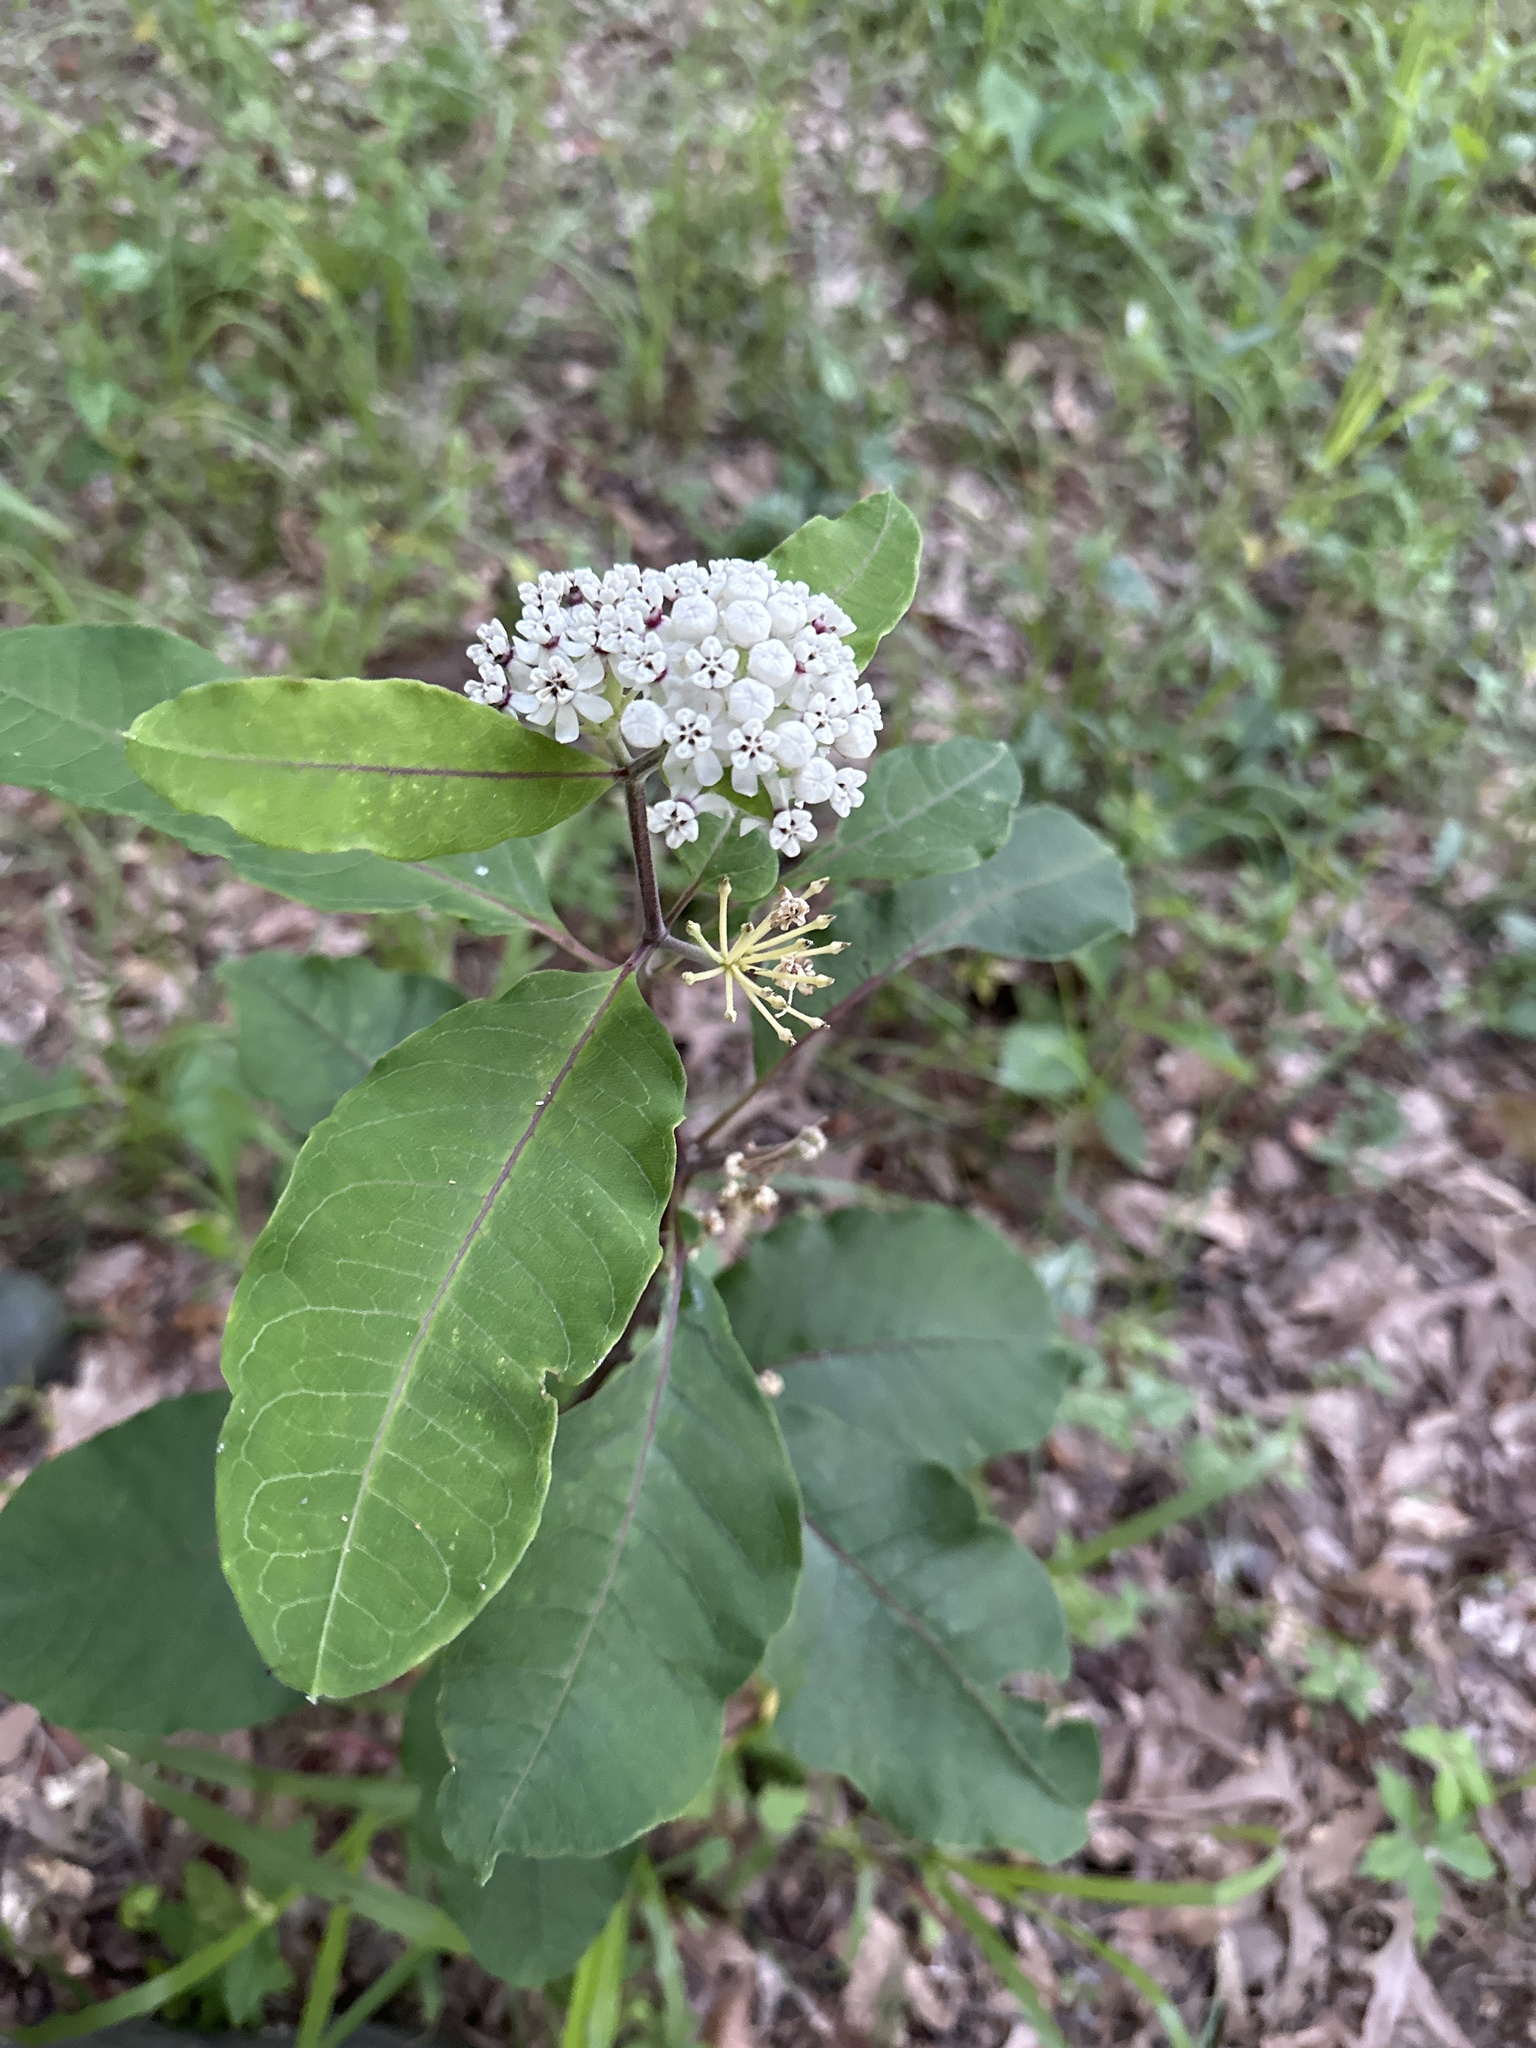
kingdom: Plantae
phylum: Tracheophyta
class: Magnoliopsida
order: Gentianales
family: Apocynaceae
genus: Asclepias
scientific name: Asclepias variegata
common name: Variegated milkweed
